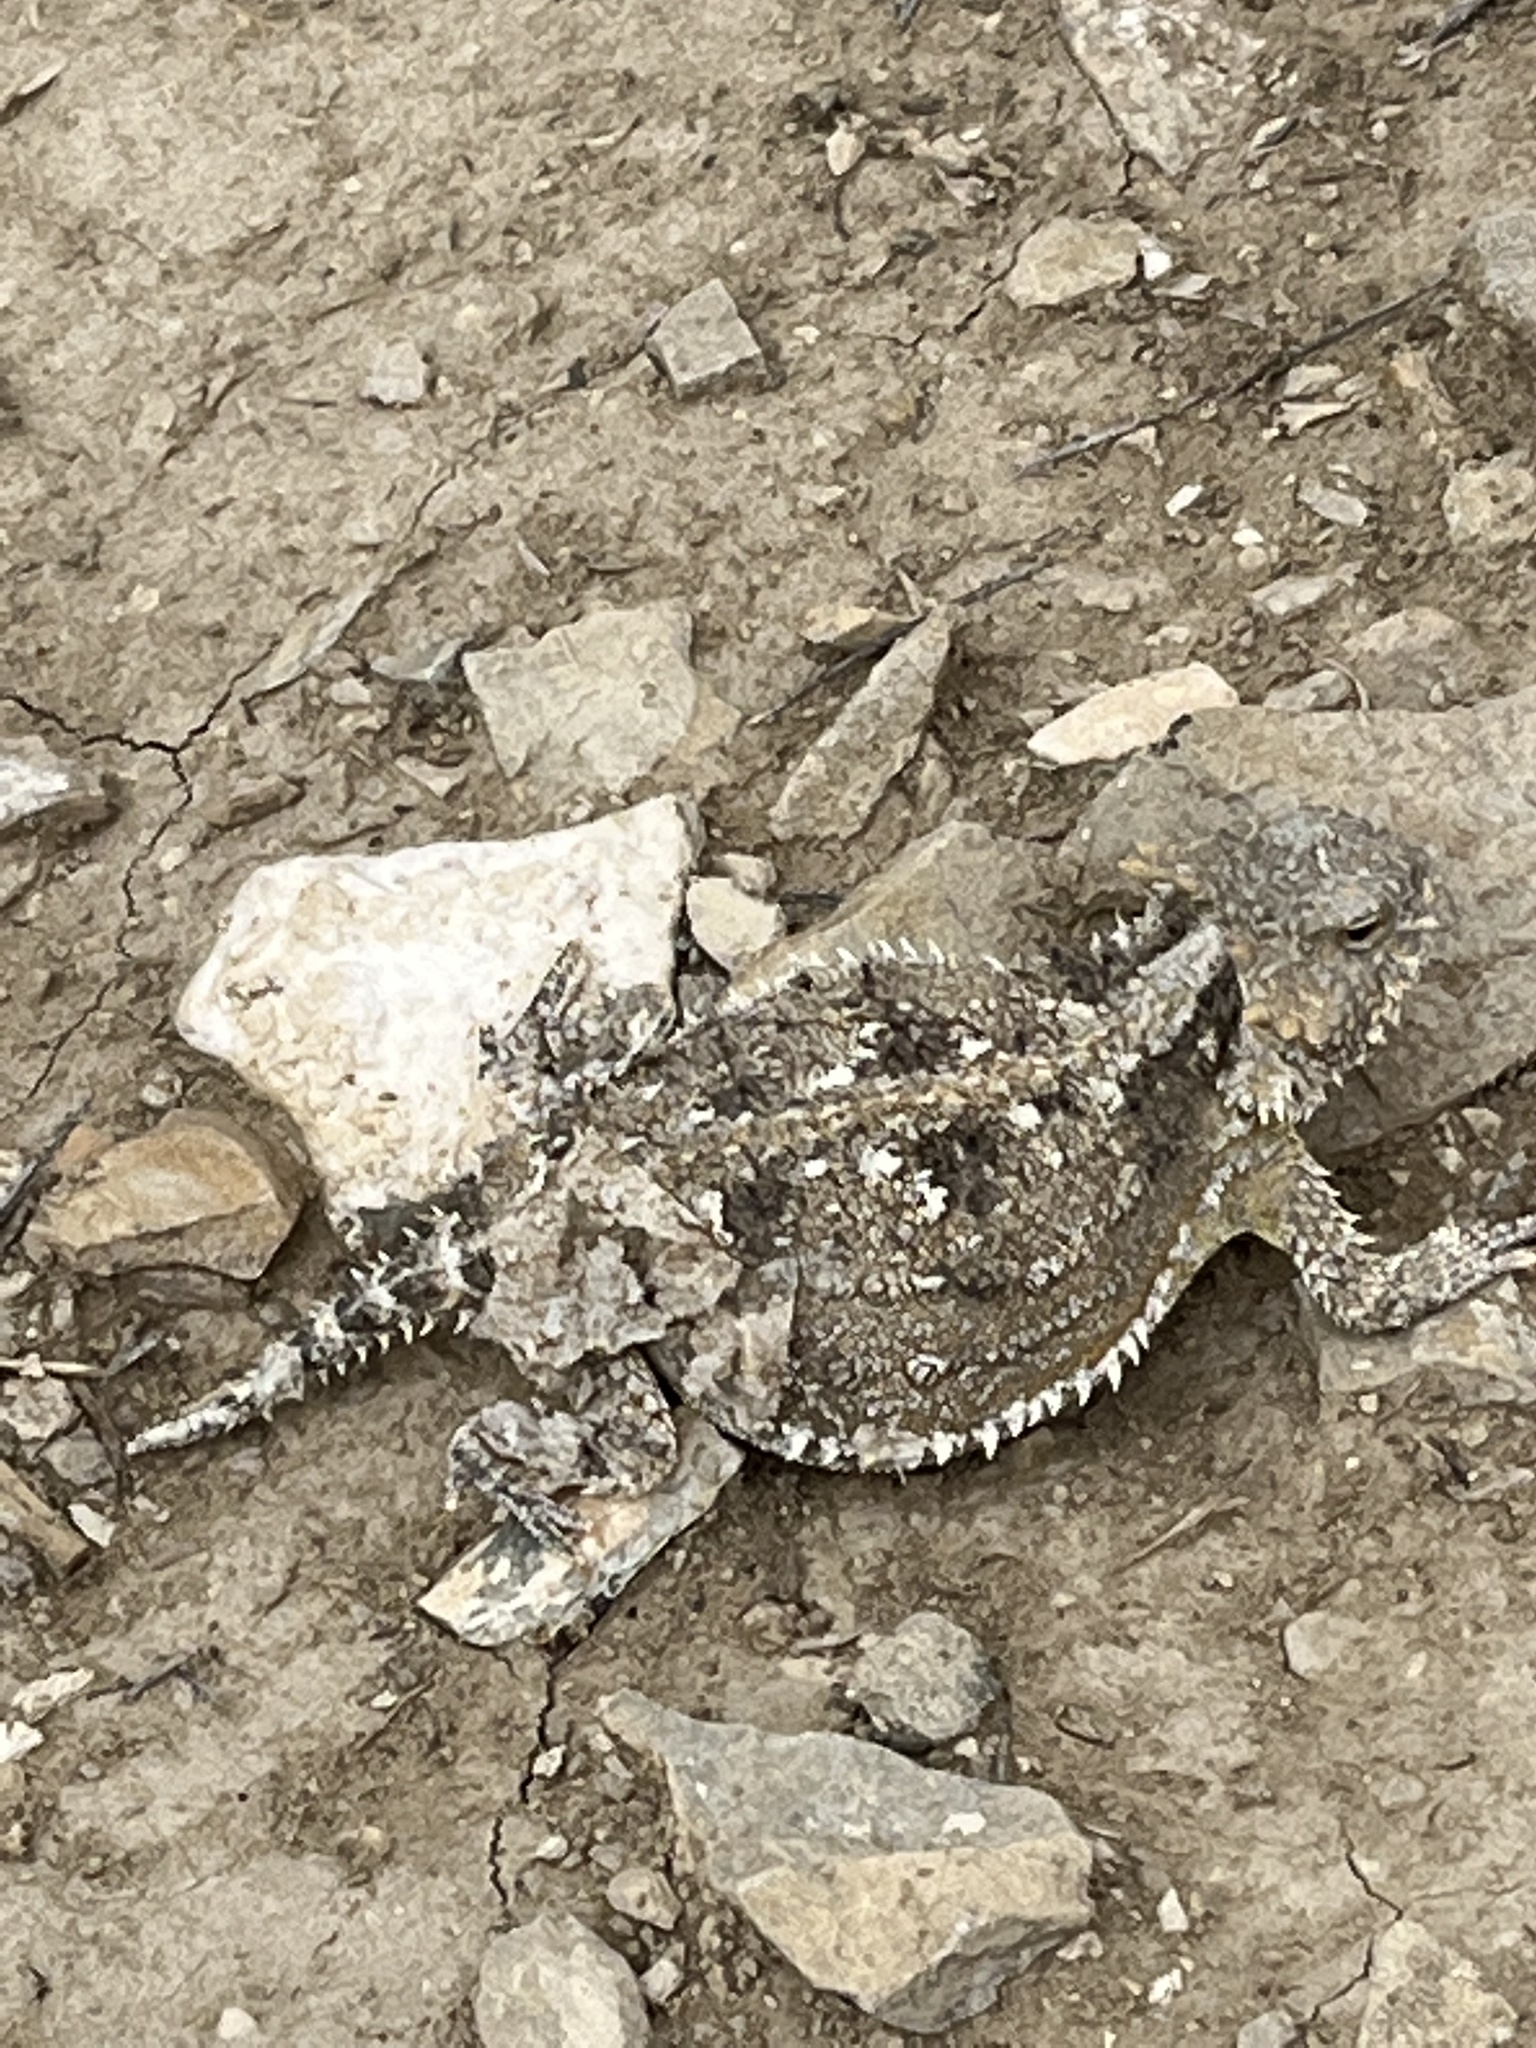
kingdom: Animalia
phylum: Chordata
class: Squamata
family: Phrynosomatidae
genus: Phrynosoma
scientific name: Phrynosoma hernandesi
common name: Greater short-horned lizard
